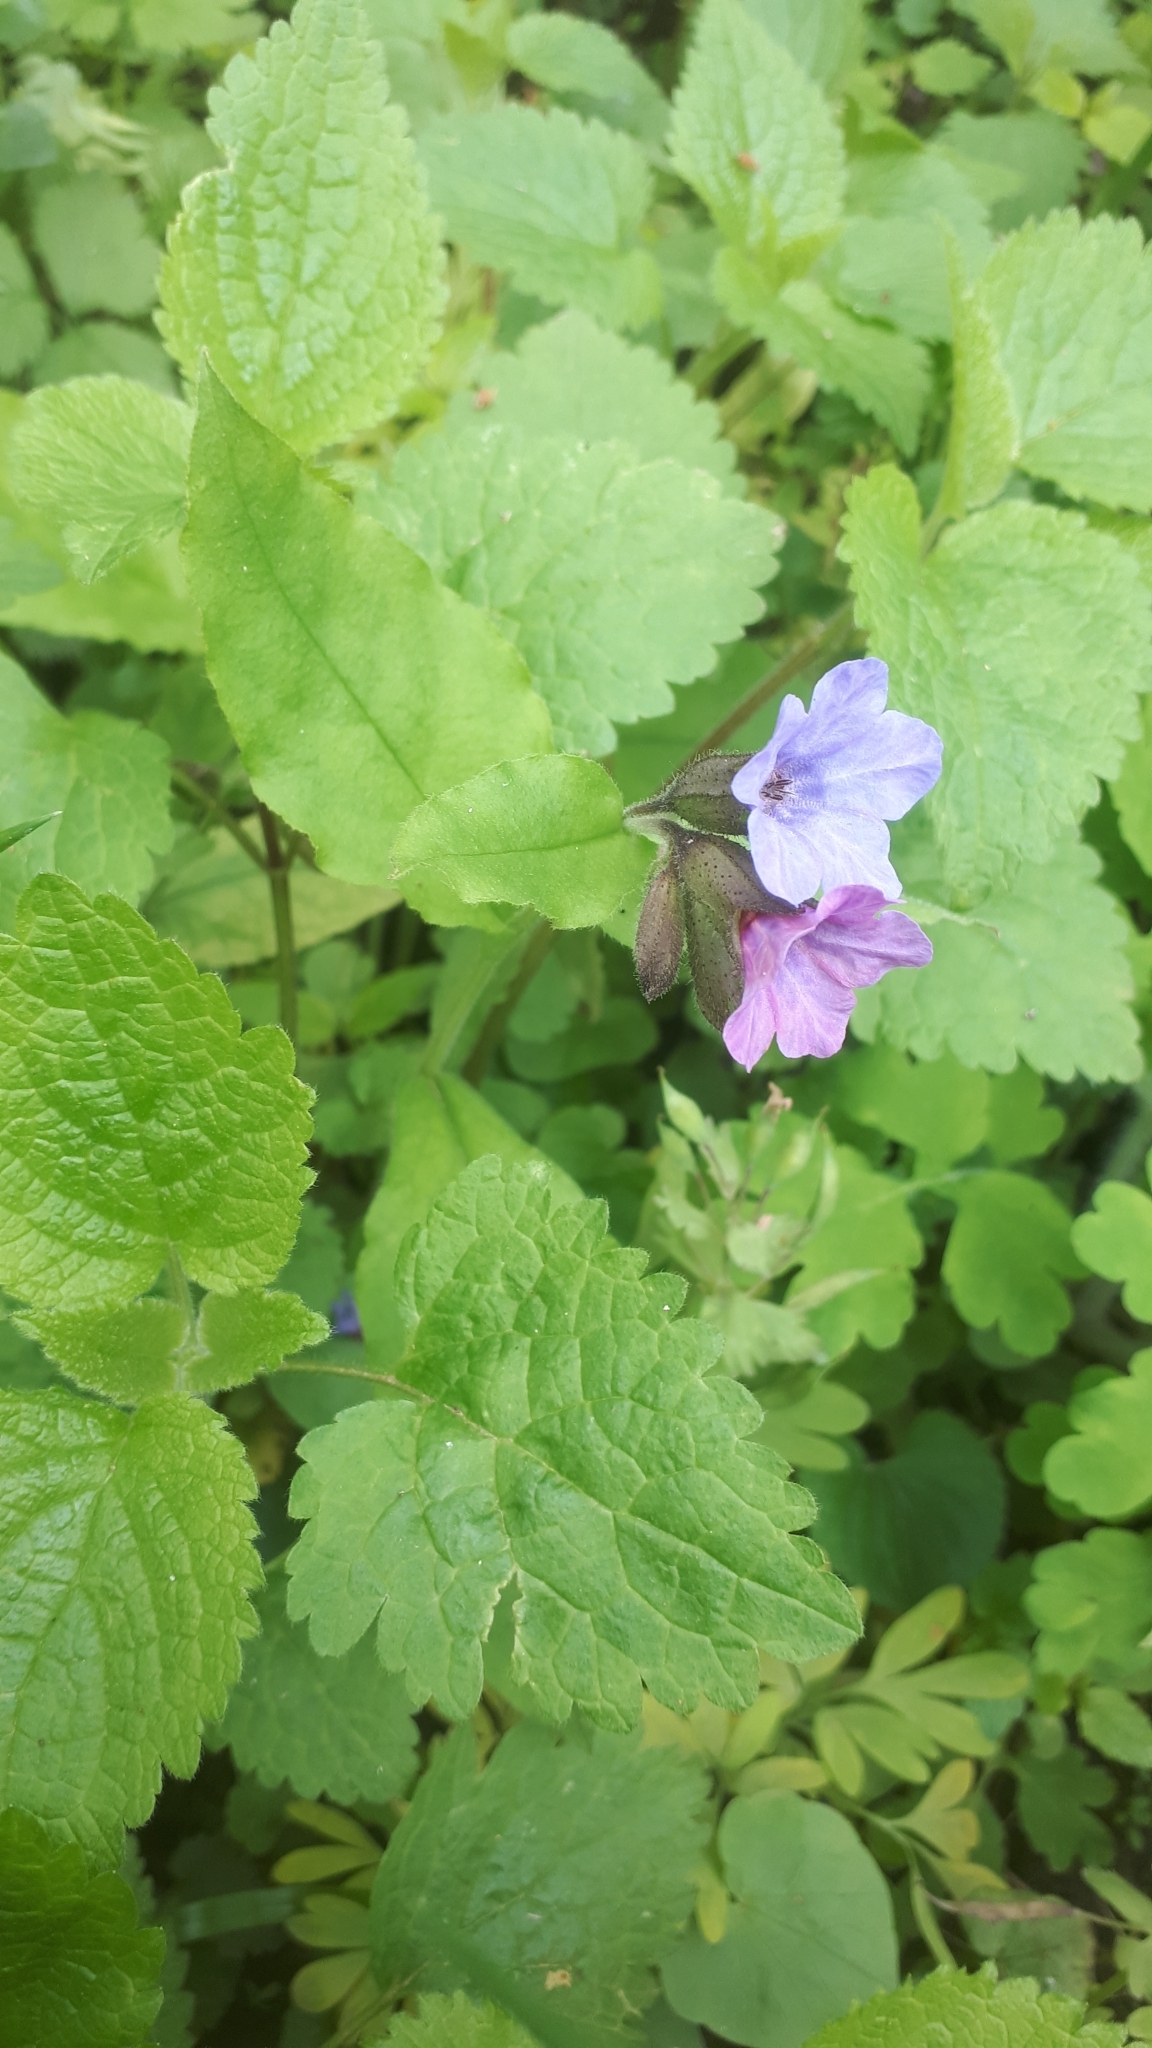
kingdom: Plantae
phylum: Tracheophyta
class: Magnoliopsida
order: Boraginales
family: Boraginaceae
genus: Pulmonaria
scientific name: Pulmonaria obscura
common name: Suffolk lungwort
